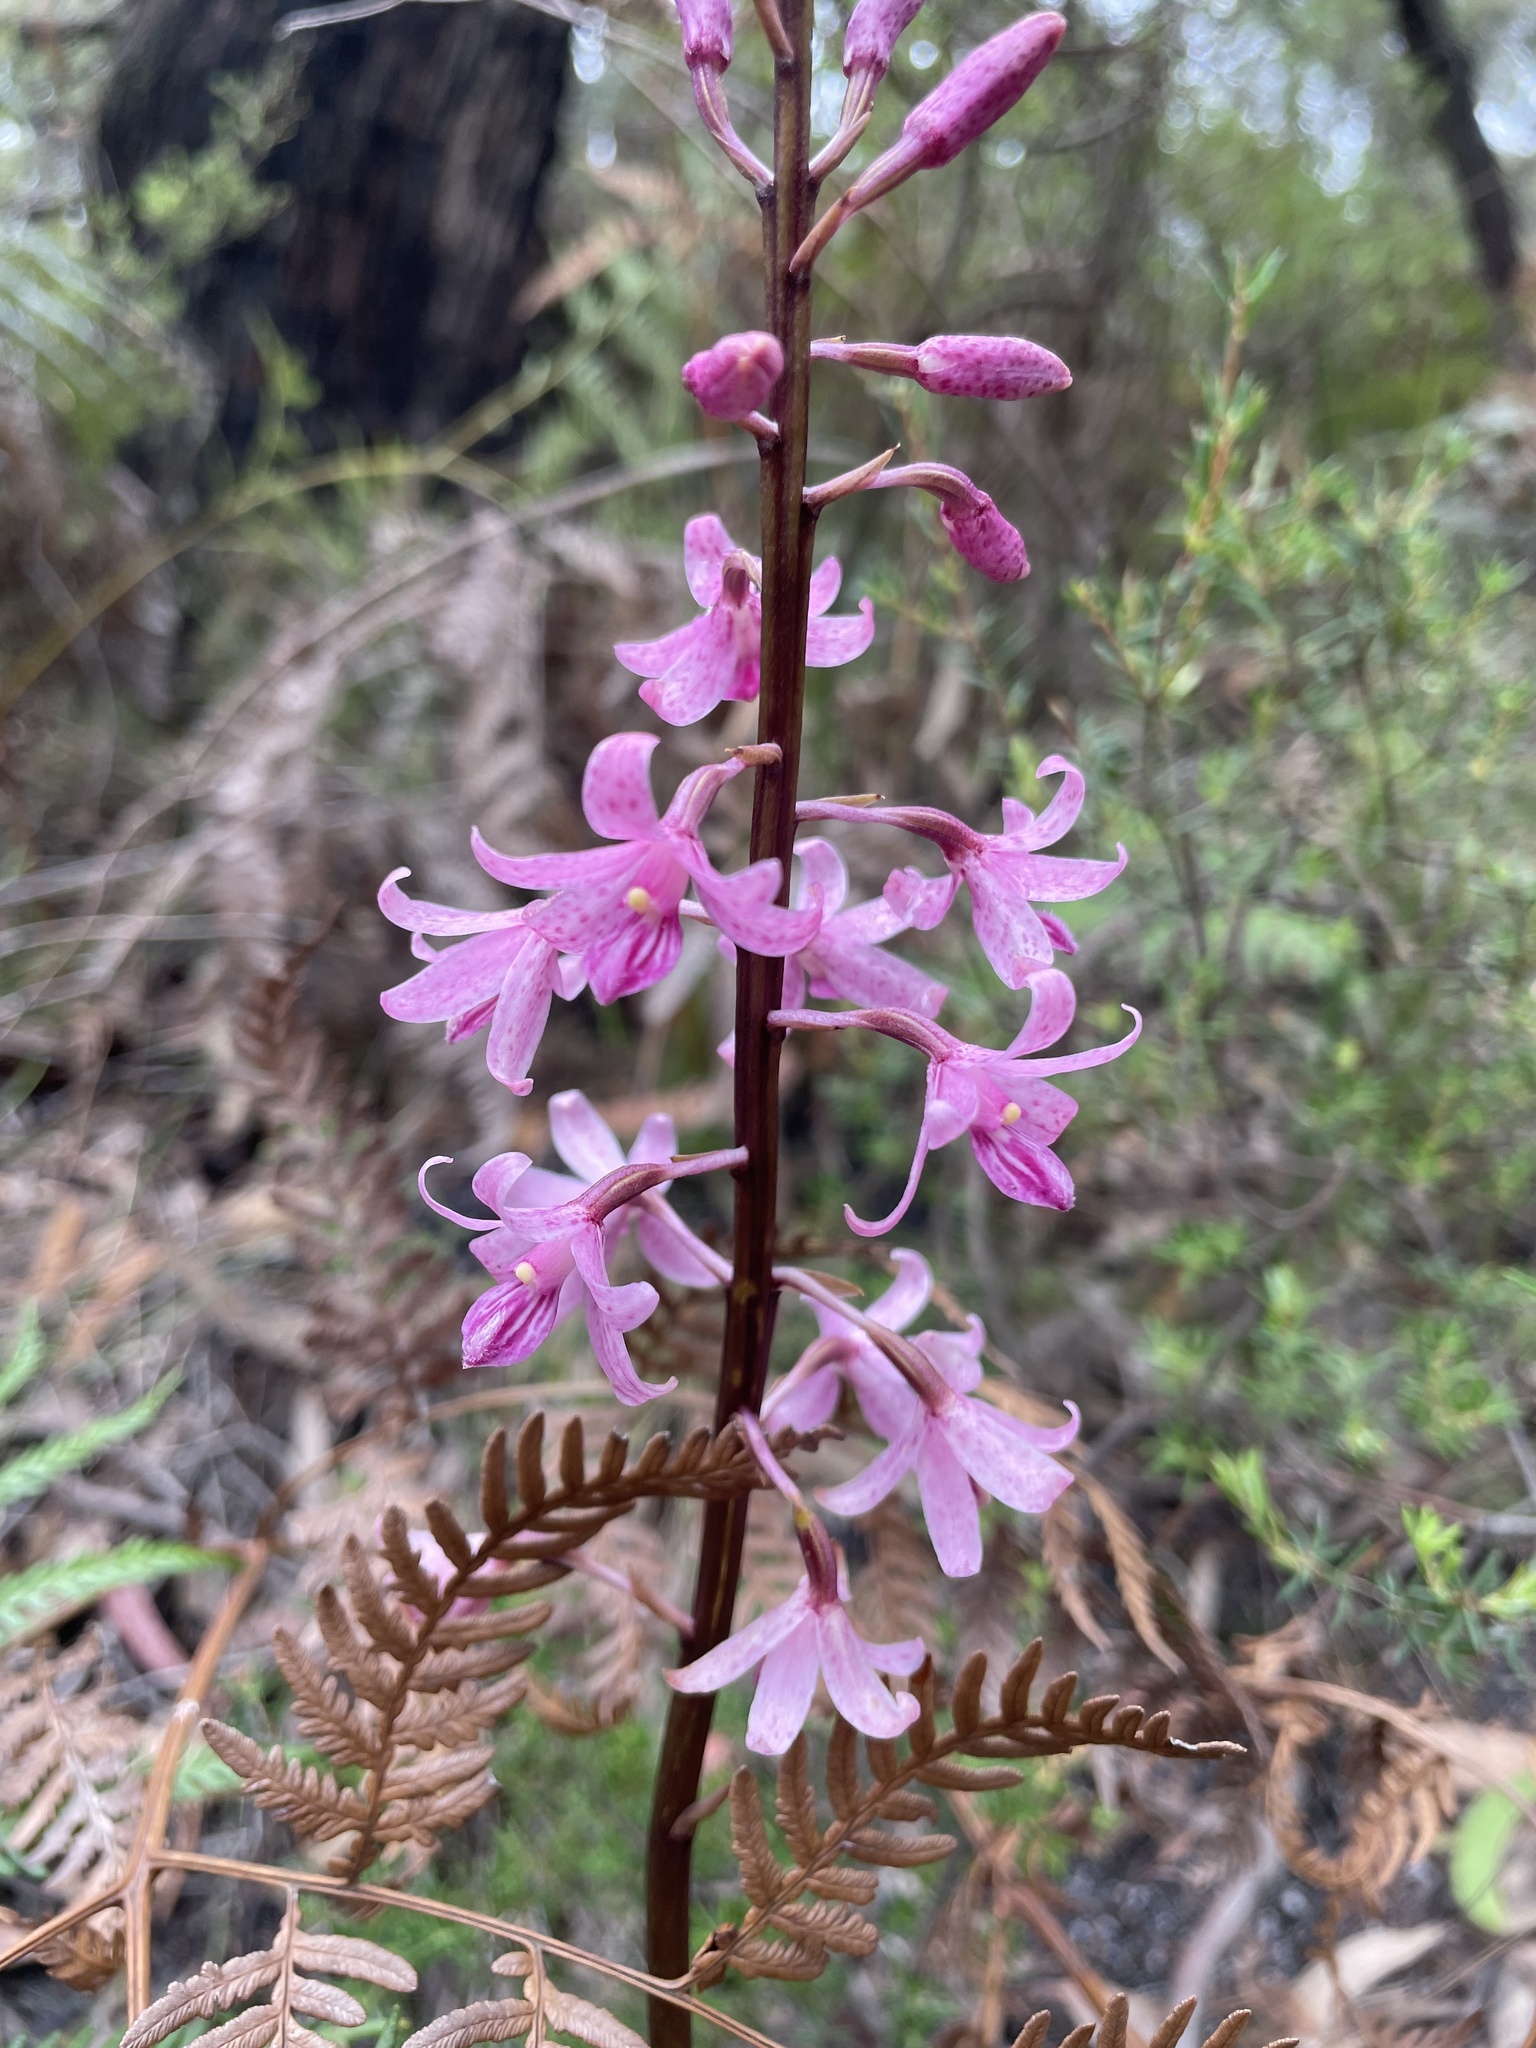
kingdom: Plantae
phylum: Tracheophyta
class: Liliopsida
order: Asparagales
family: Orchidaceae
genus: Dipodium
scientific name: Dipodium roseum
